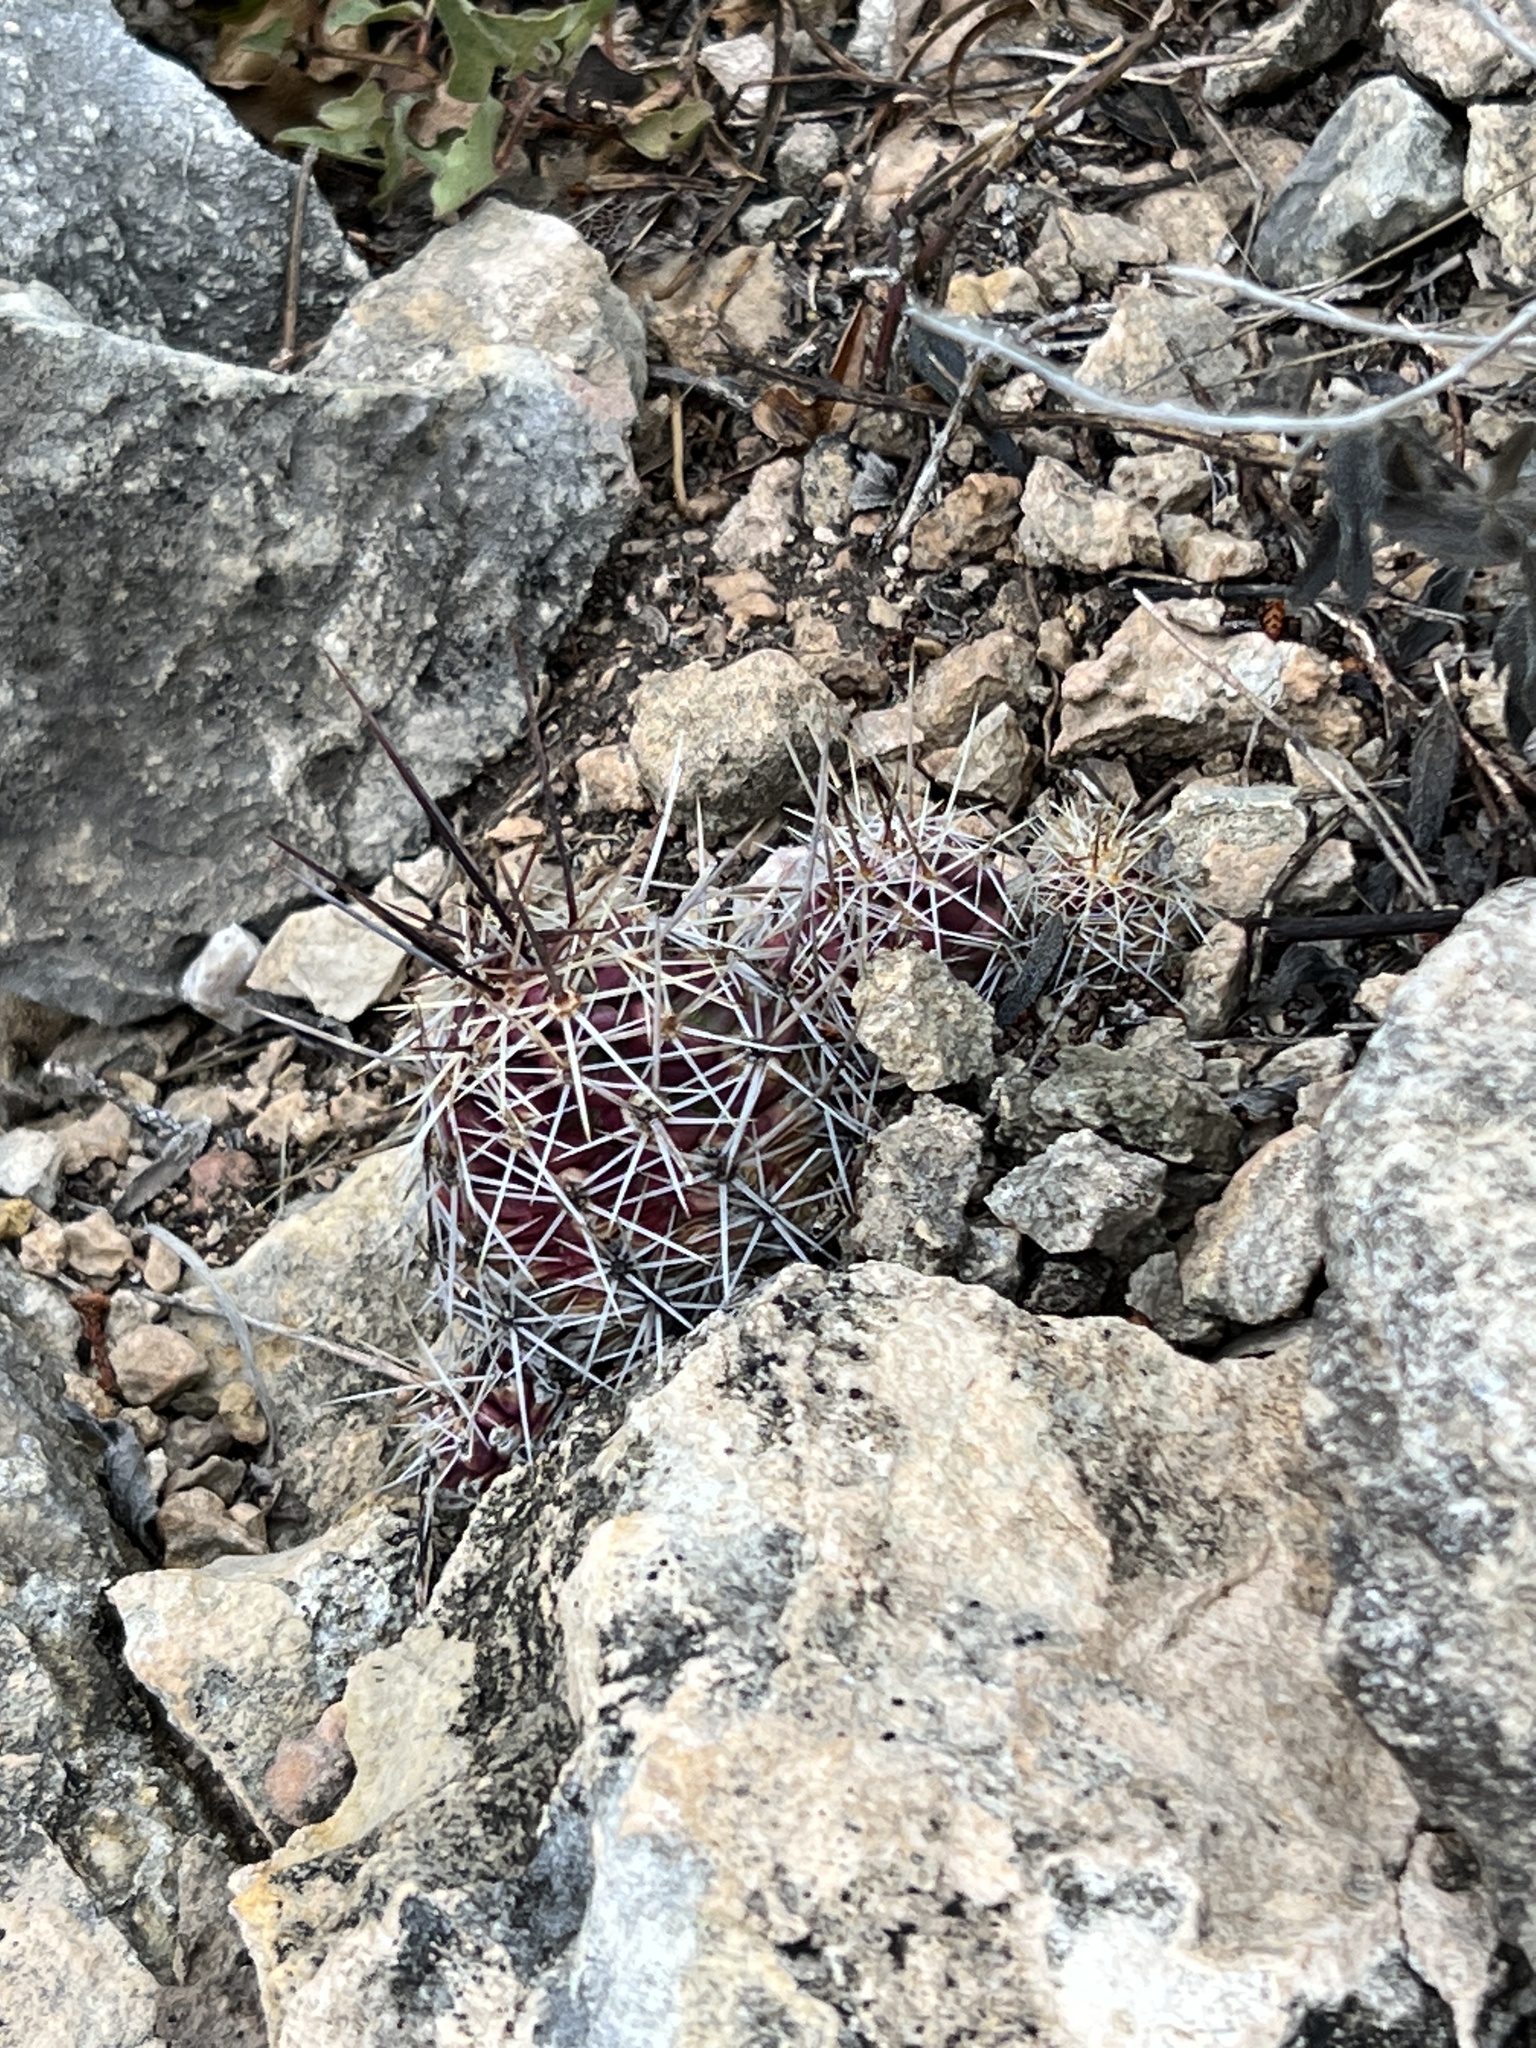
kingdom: Plantae
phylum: Tracheophyta
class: Magnoliopsida
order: Caryophyllales
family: Cactaceae
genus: Echinocereus
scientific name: Echinocereus enneacanthus
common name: Pitaya
